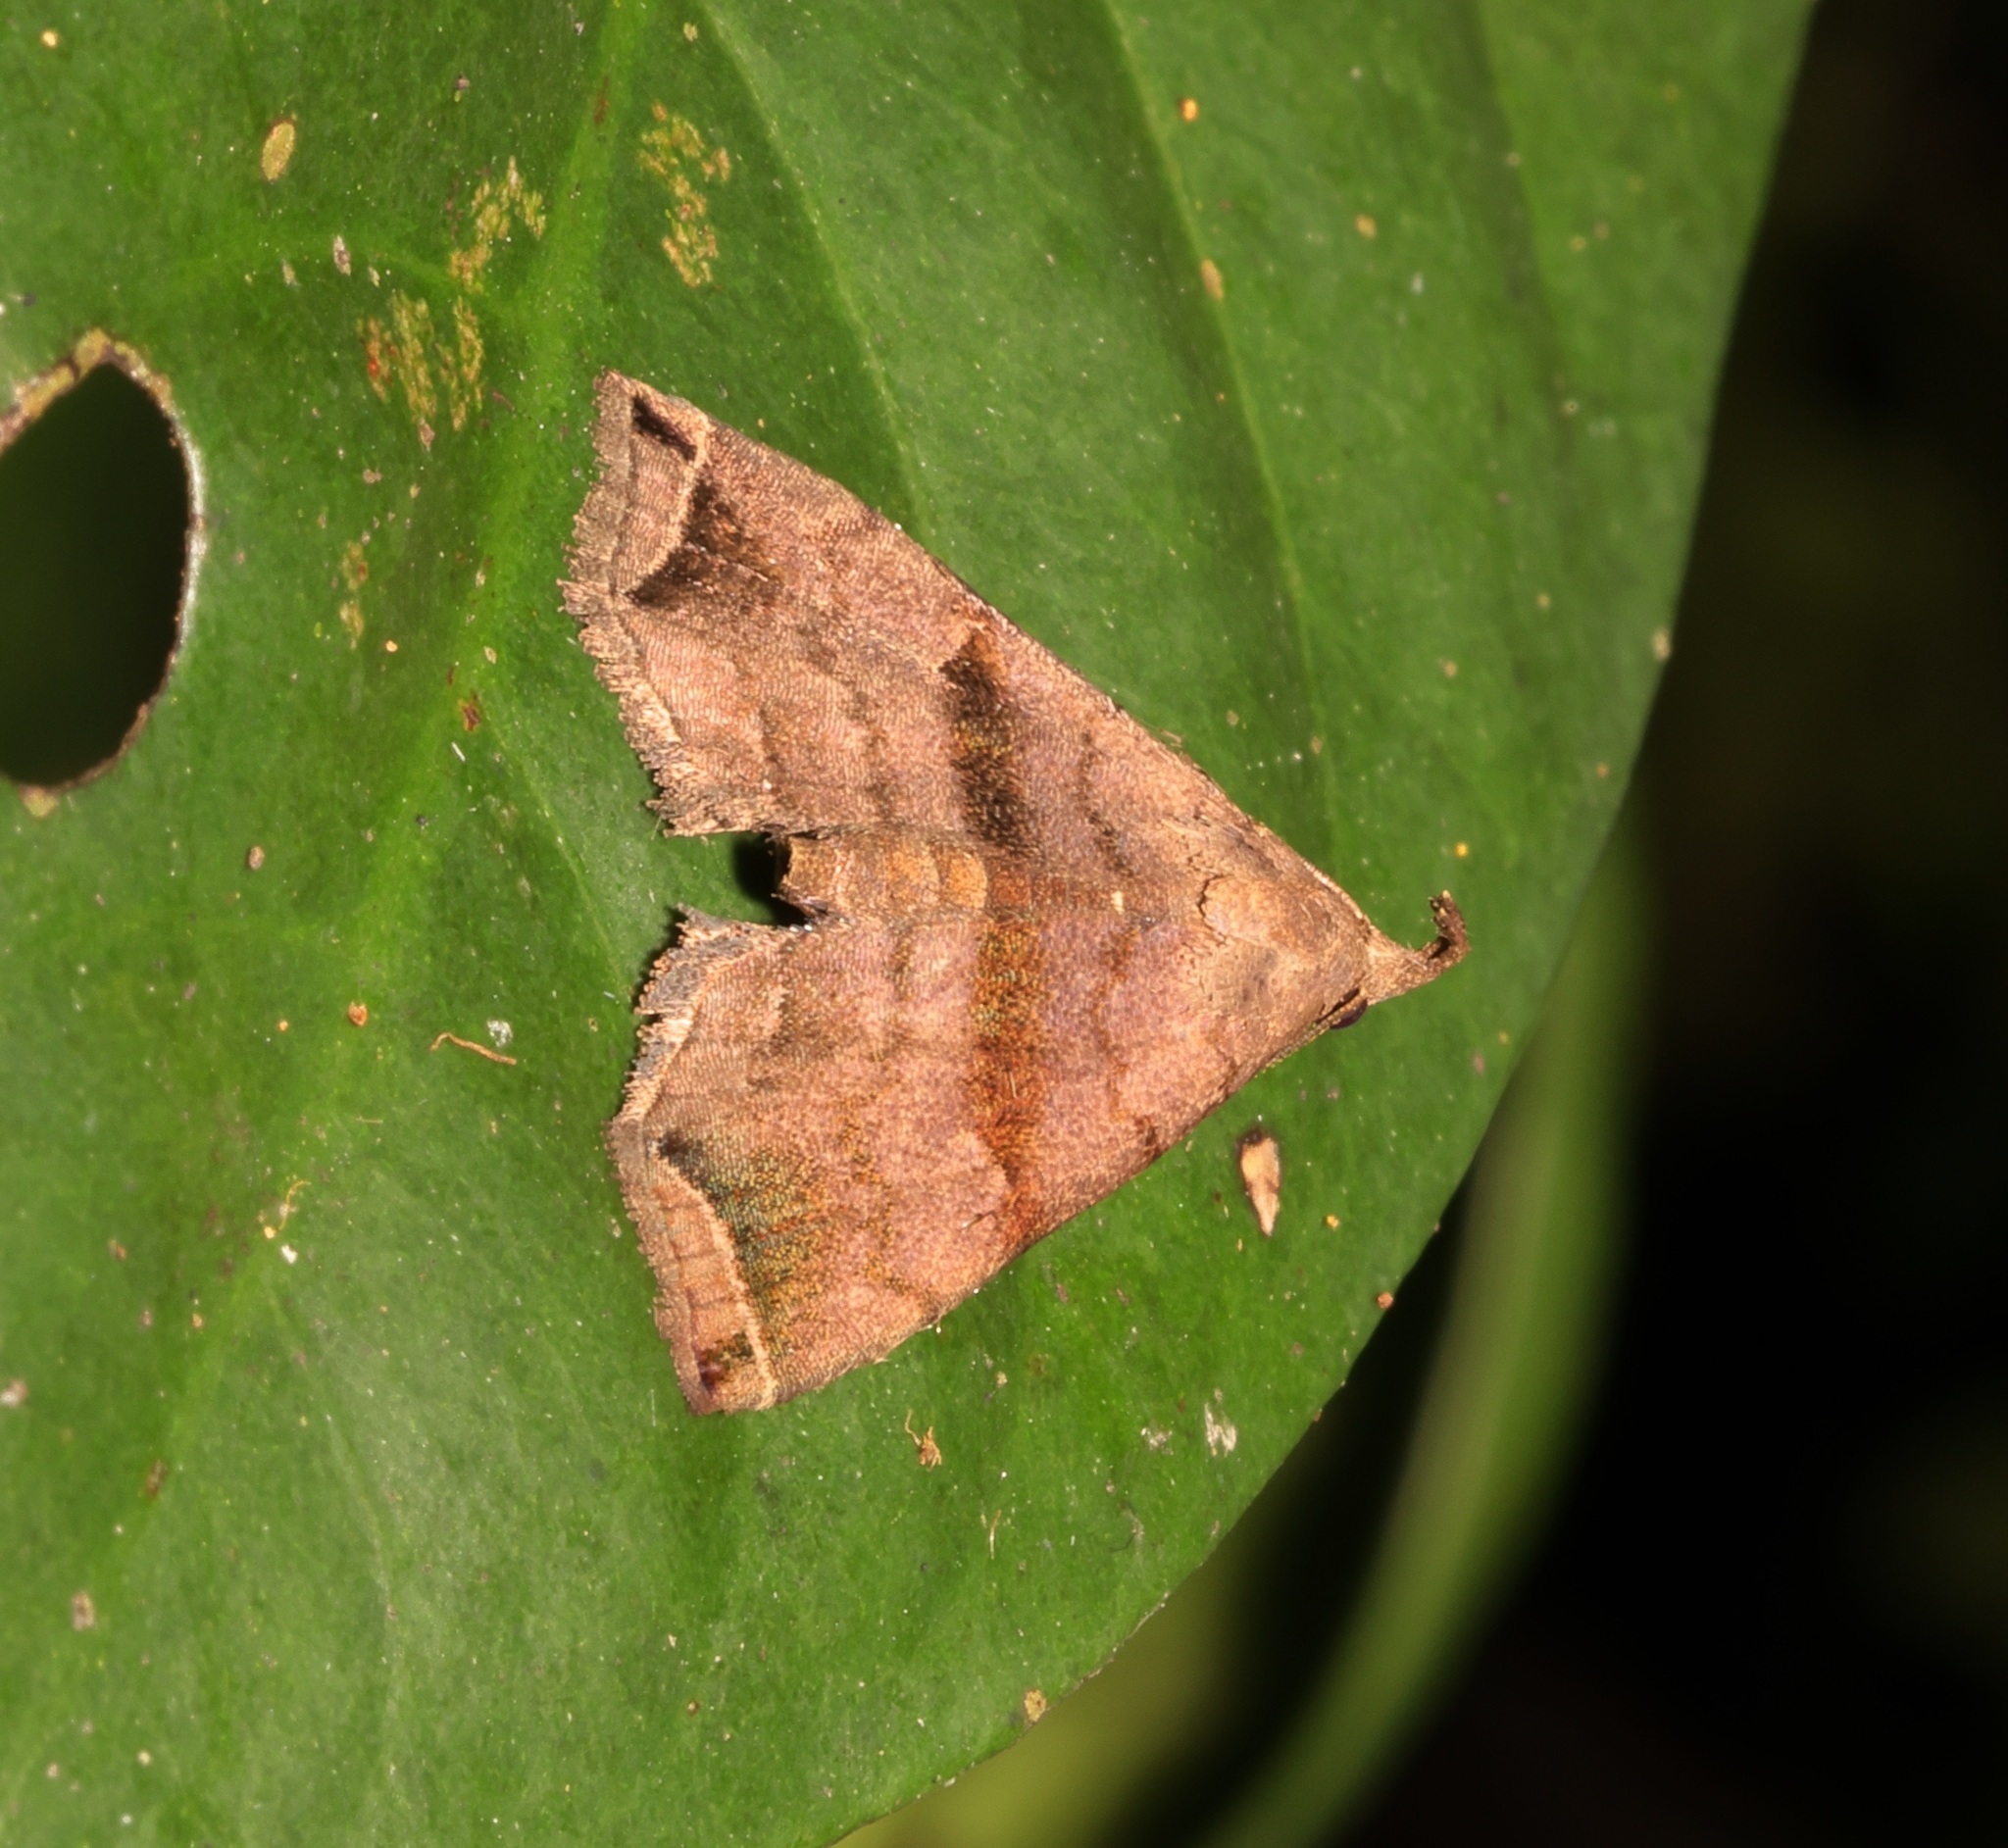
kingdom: Animalia
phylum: Arthropoda
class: Insecta
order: Lepidoptera
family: Erebidae
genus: Polypogon
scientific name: Polypogon biasalis
